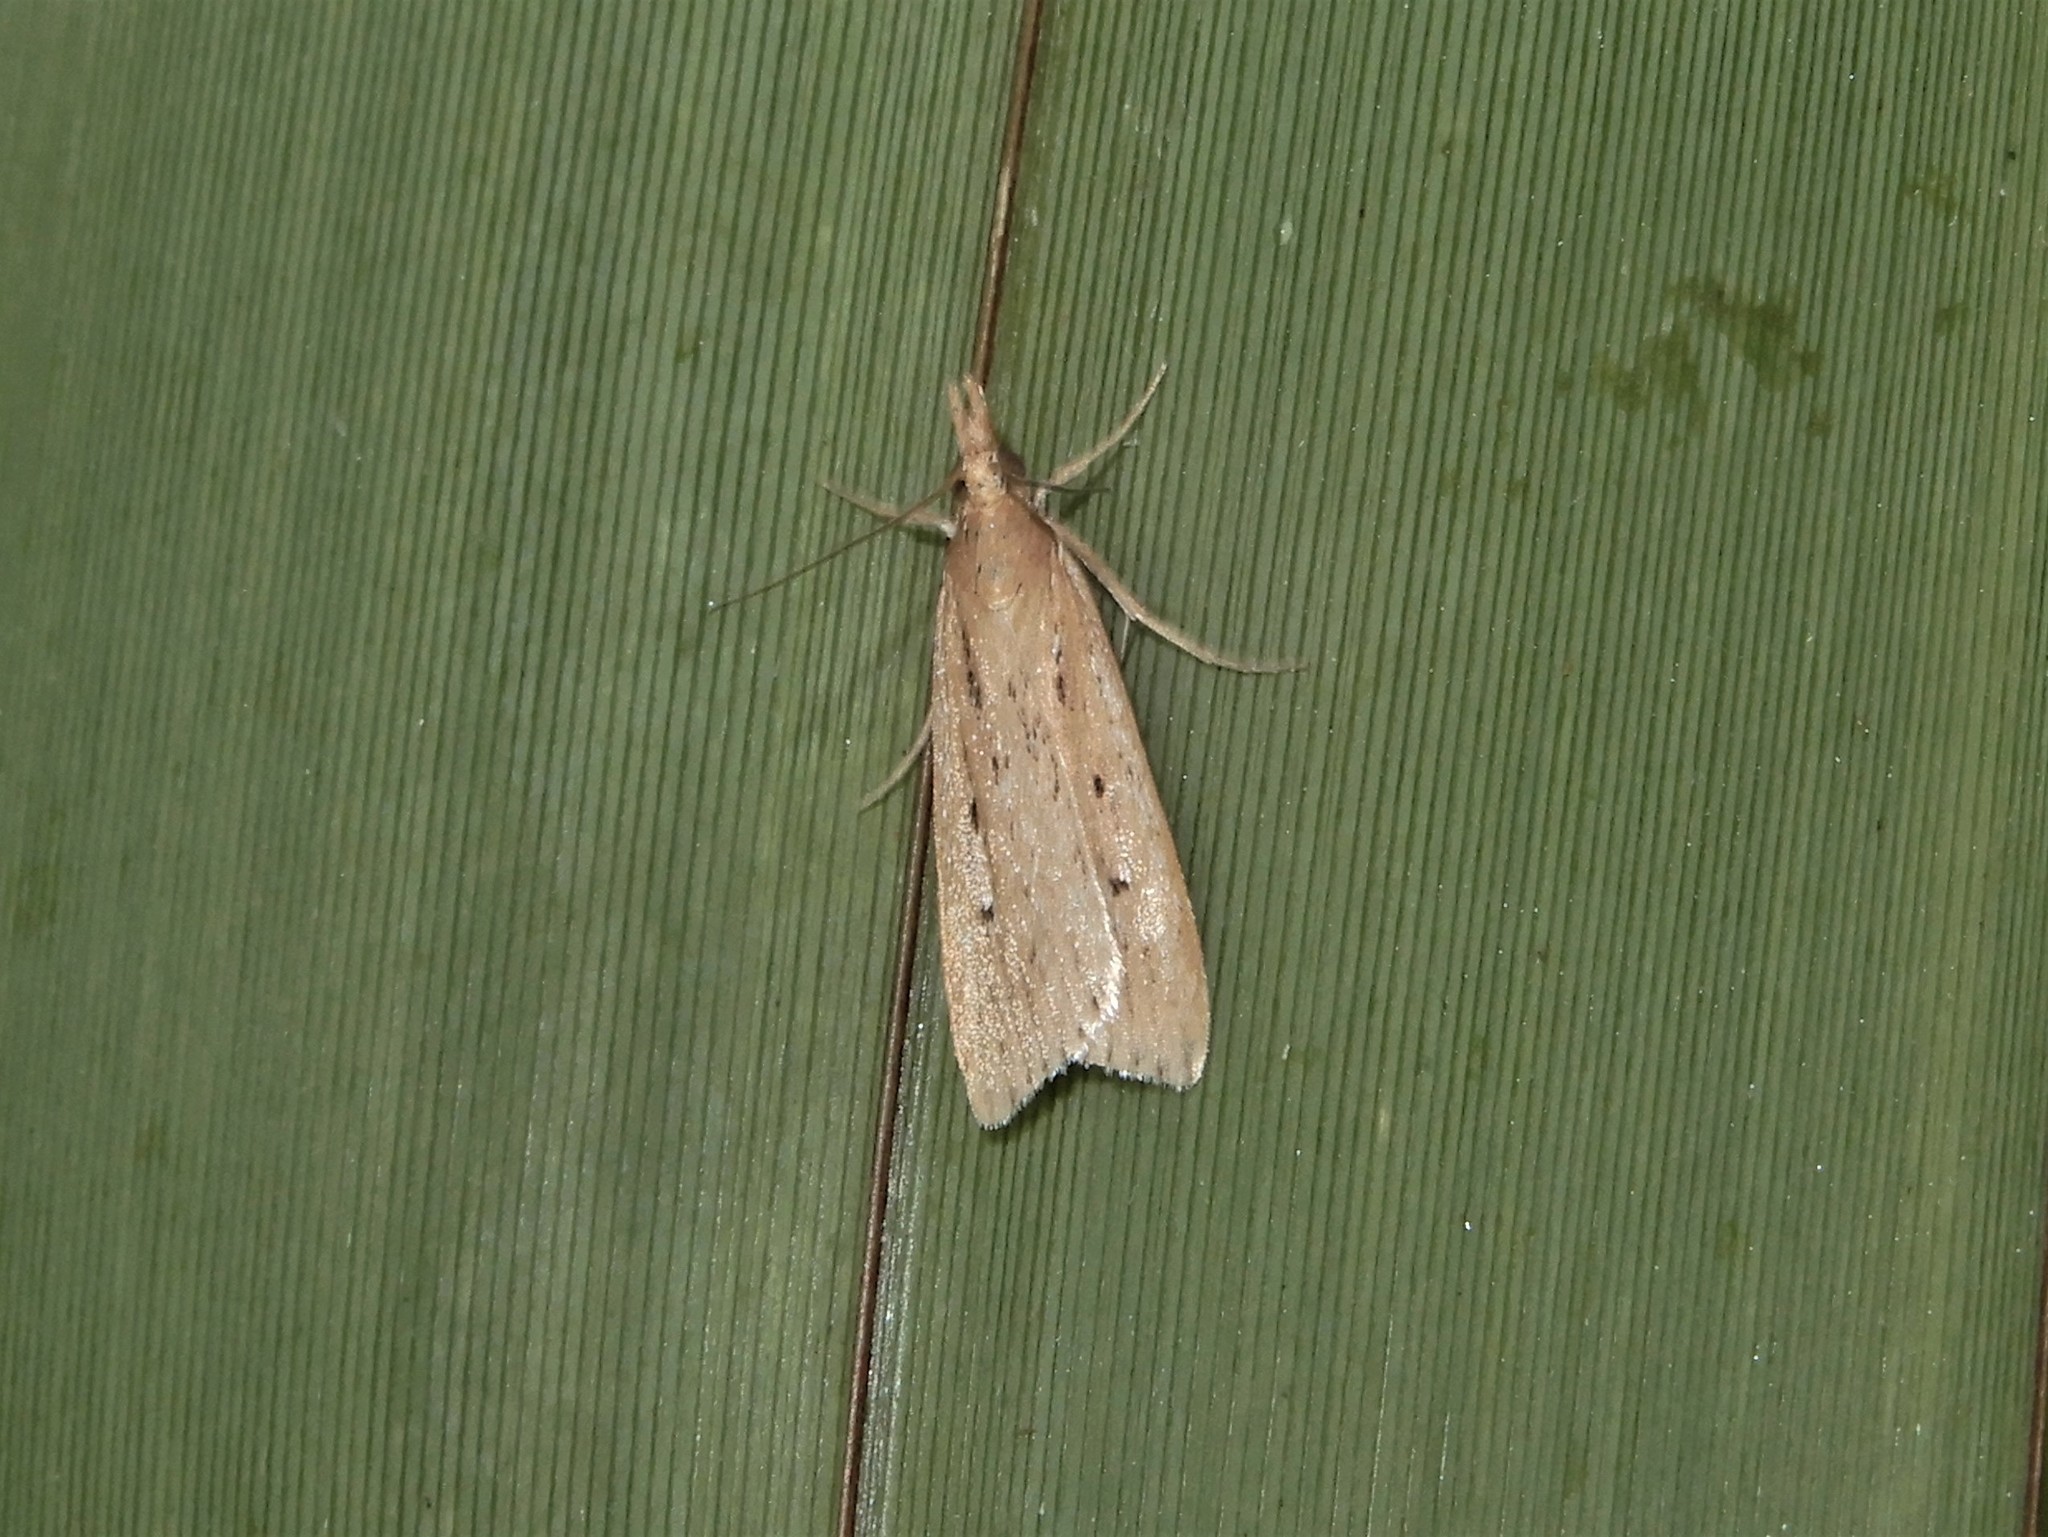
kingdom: Animalia
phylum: Arthropoda
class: Insecta
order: Lepidoptera
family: Crambidae
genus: Eudonia
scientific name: Eudonia sabulosella
